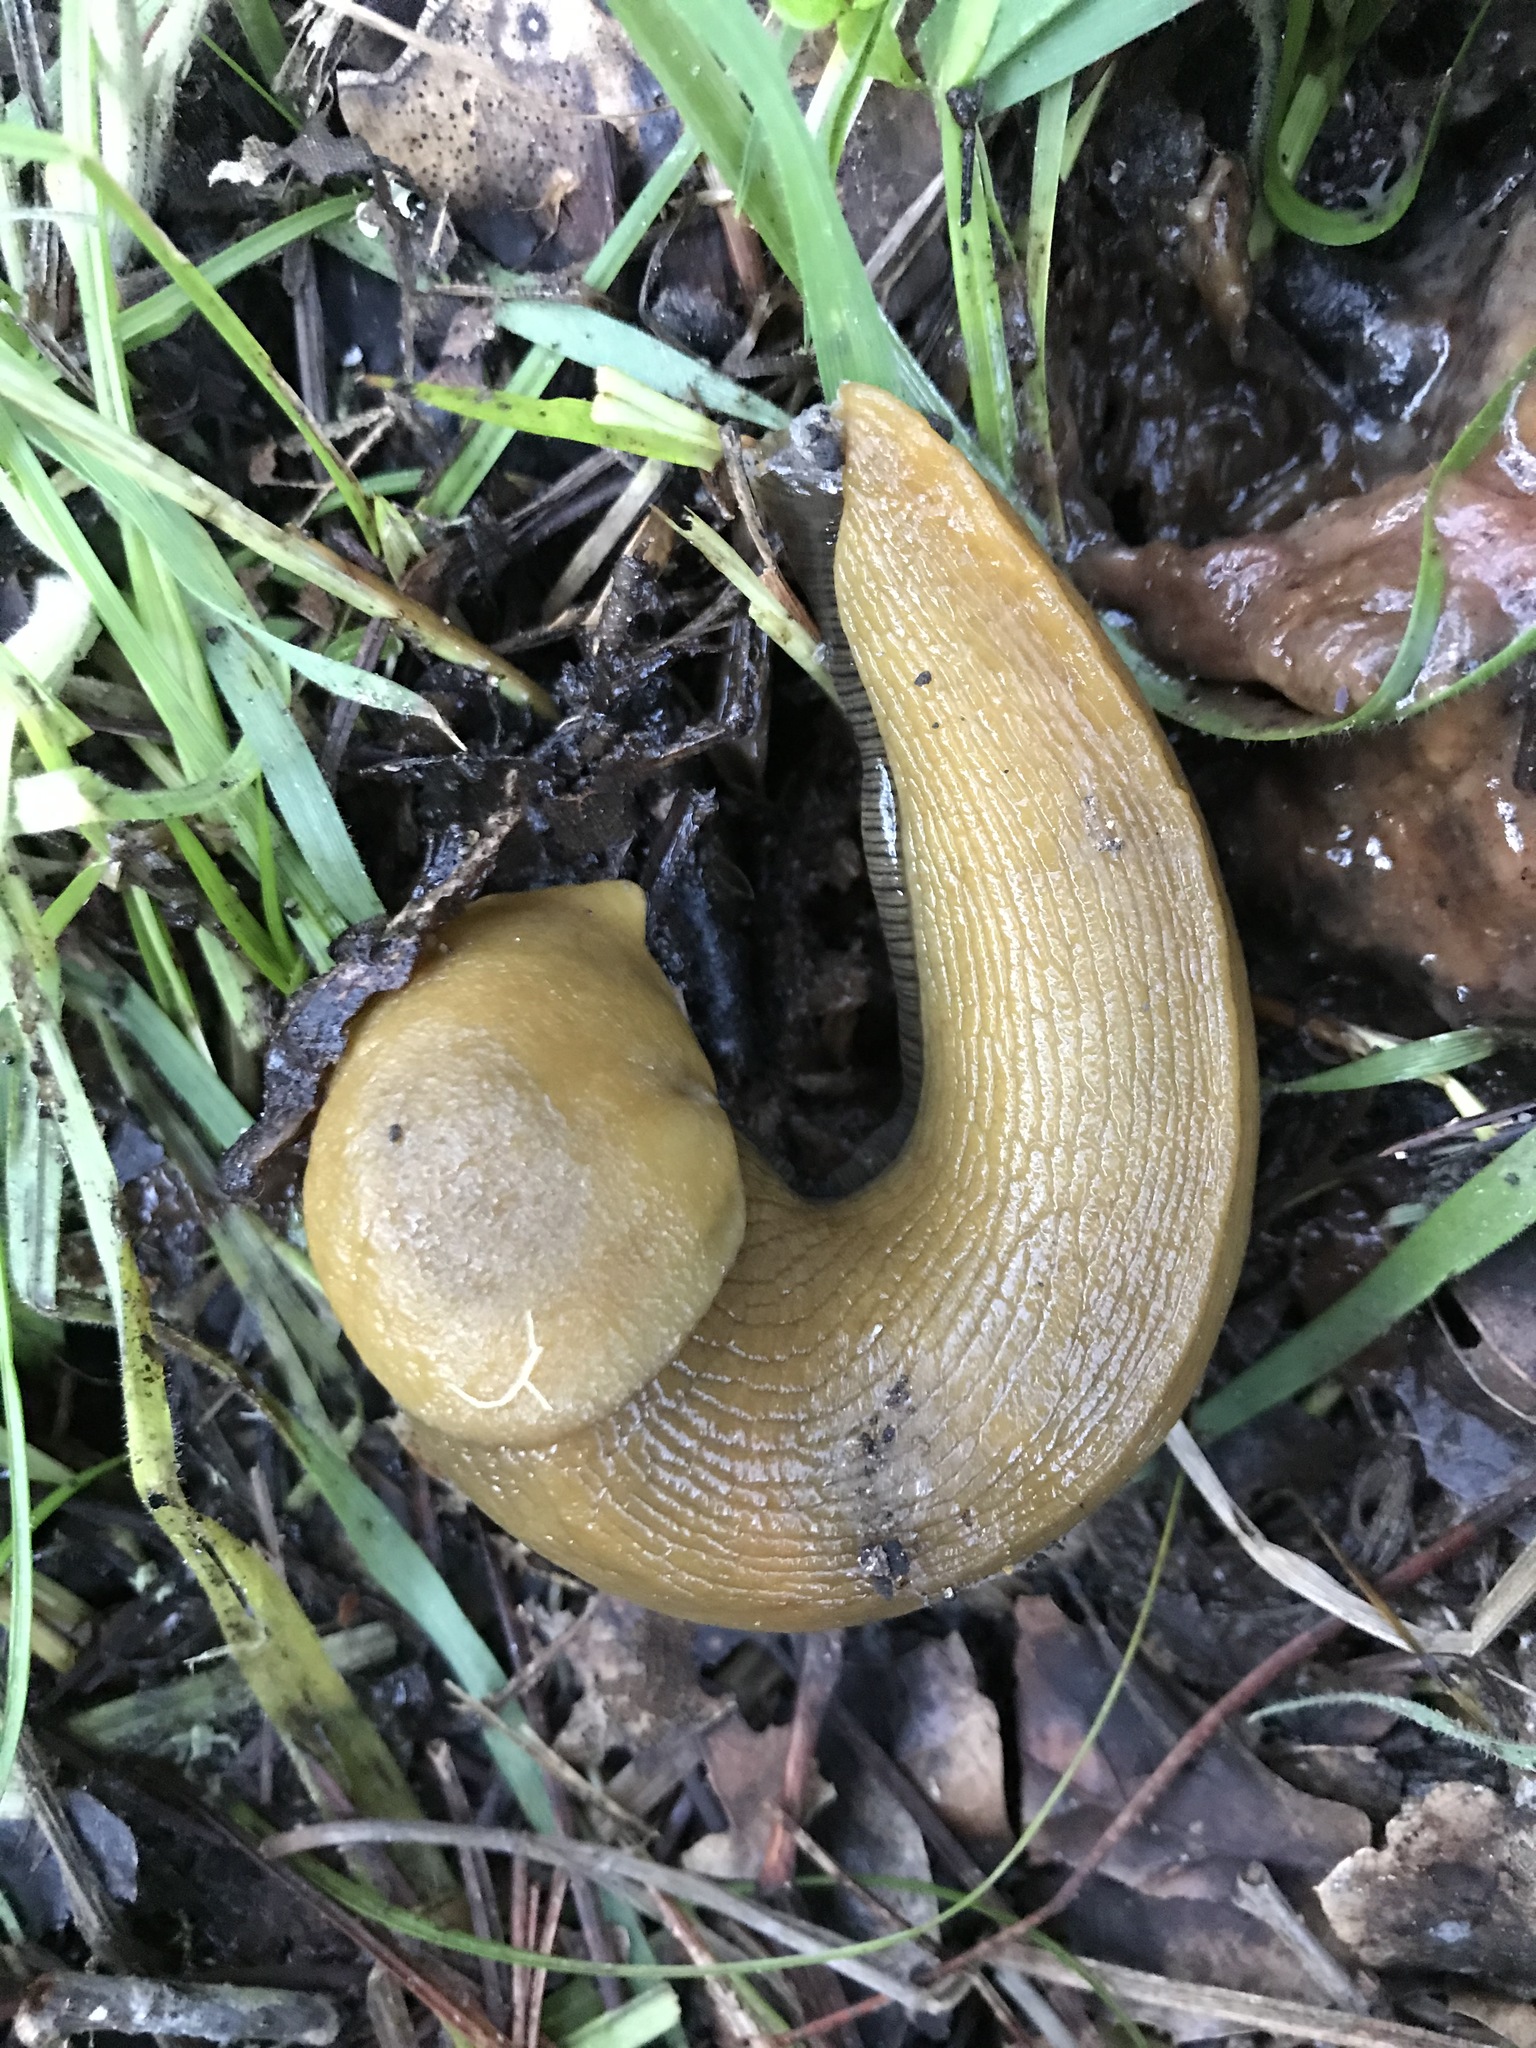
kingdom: Animalia
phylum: Mollusca
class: Gastropoda
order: Stylommatophora
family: Ariolimacidae
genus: Ariolimax
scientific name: Ariolimax dolichophallus
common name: Slender banana slug
